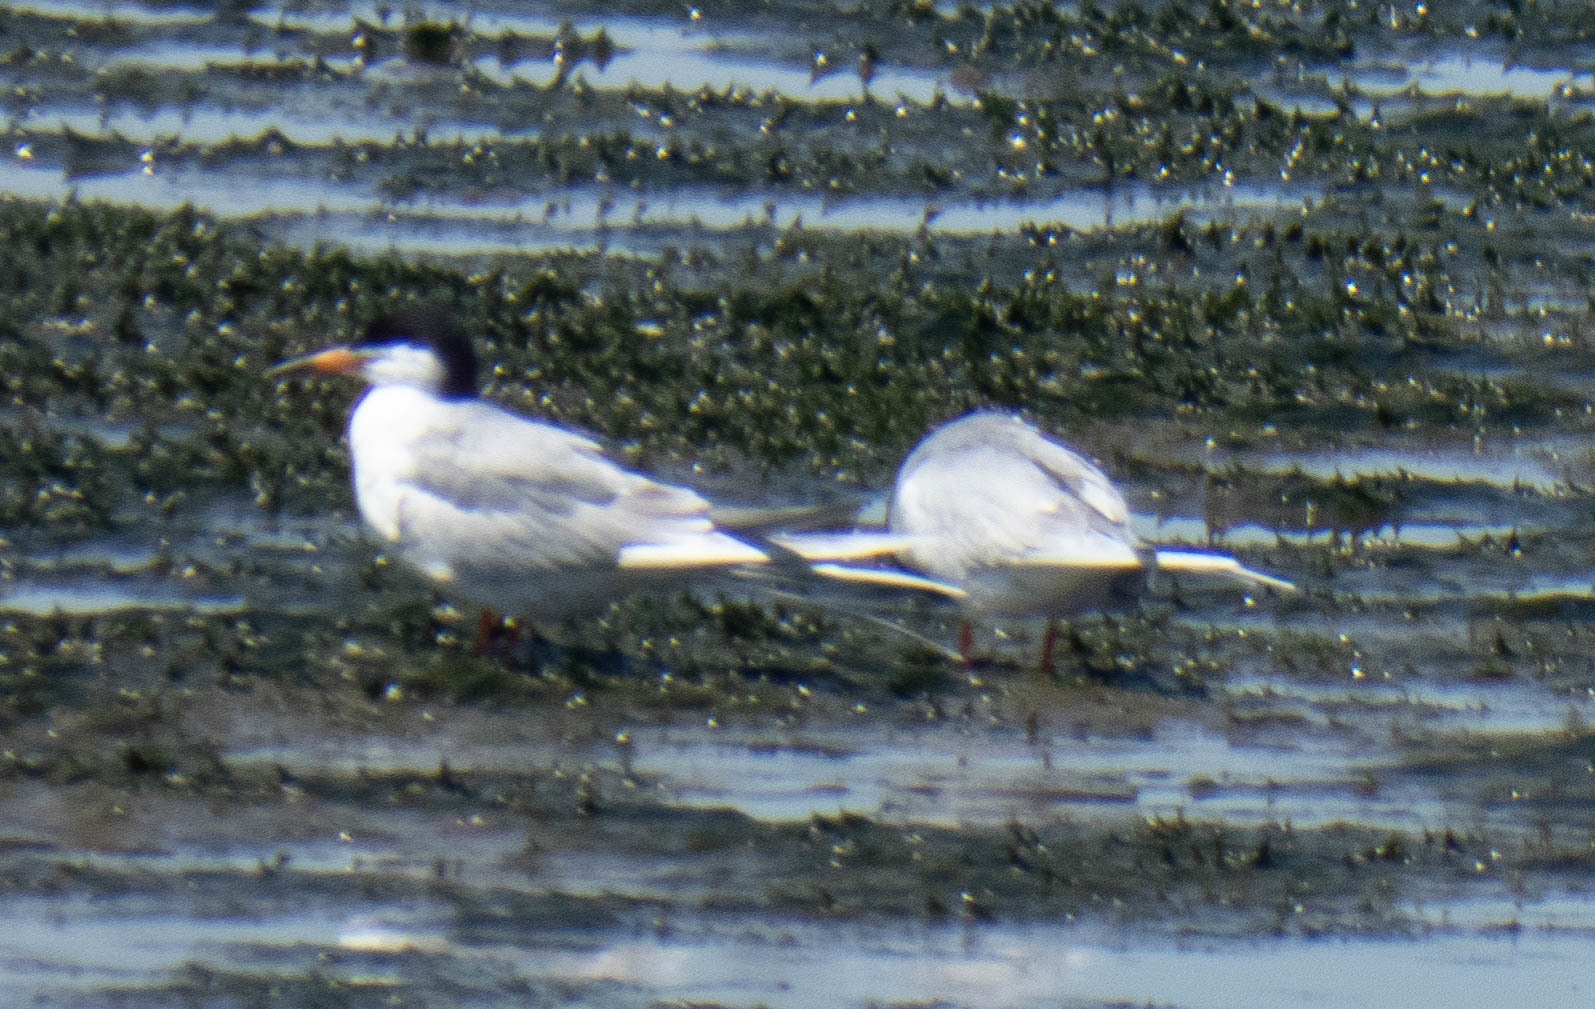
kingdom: Animalia
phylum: Chordata
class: Aves
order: Charadriiformes
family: Laridae
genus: Sterna
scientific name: Sterna forsteri
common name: Forster's tern
